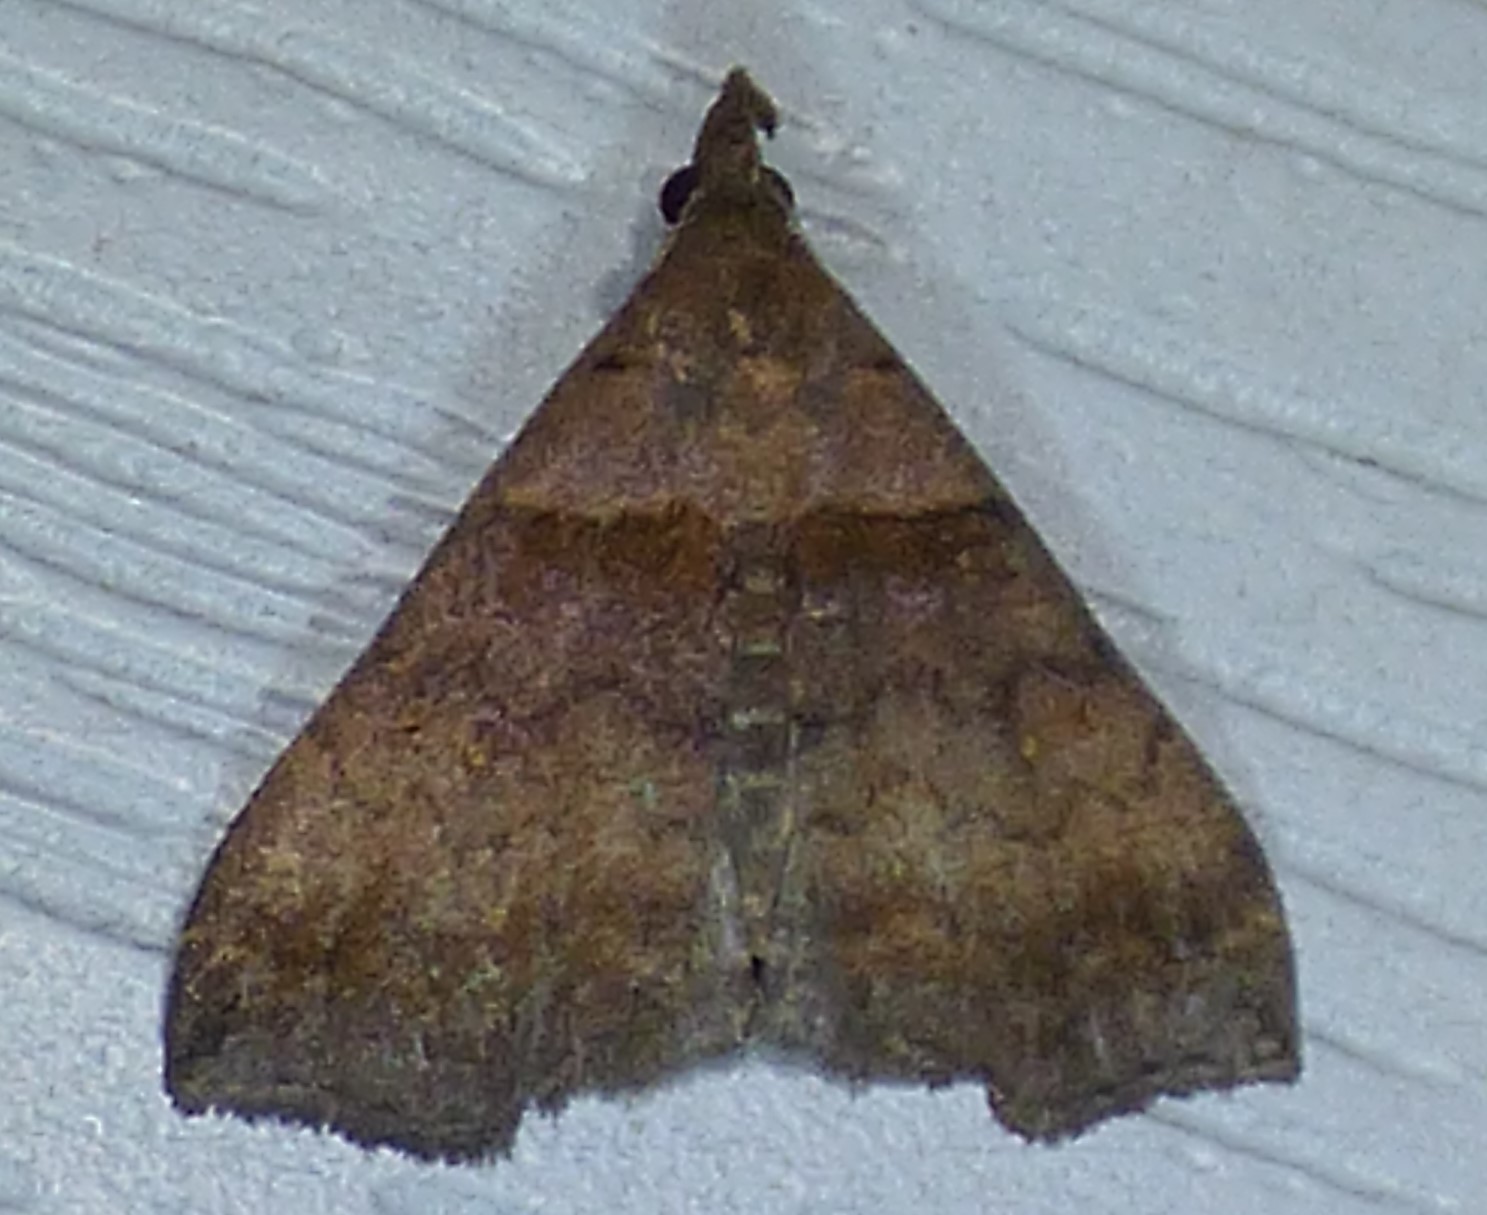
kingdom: Animalia
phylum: Arthropoda
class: Insecta
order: Lepidoptera
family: Erebidae
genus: Lascoria
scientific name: Lascoria ambigualis
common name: Ambiguous moth
